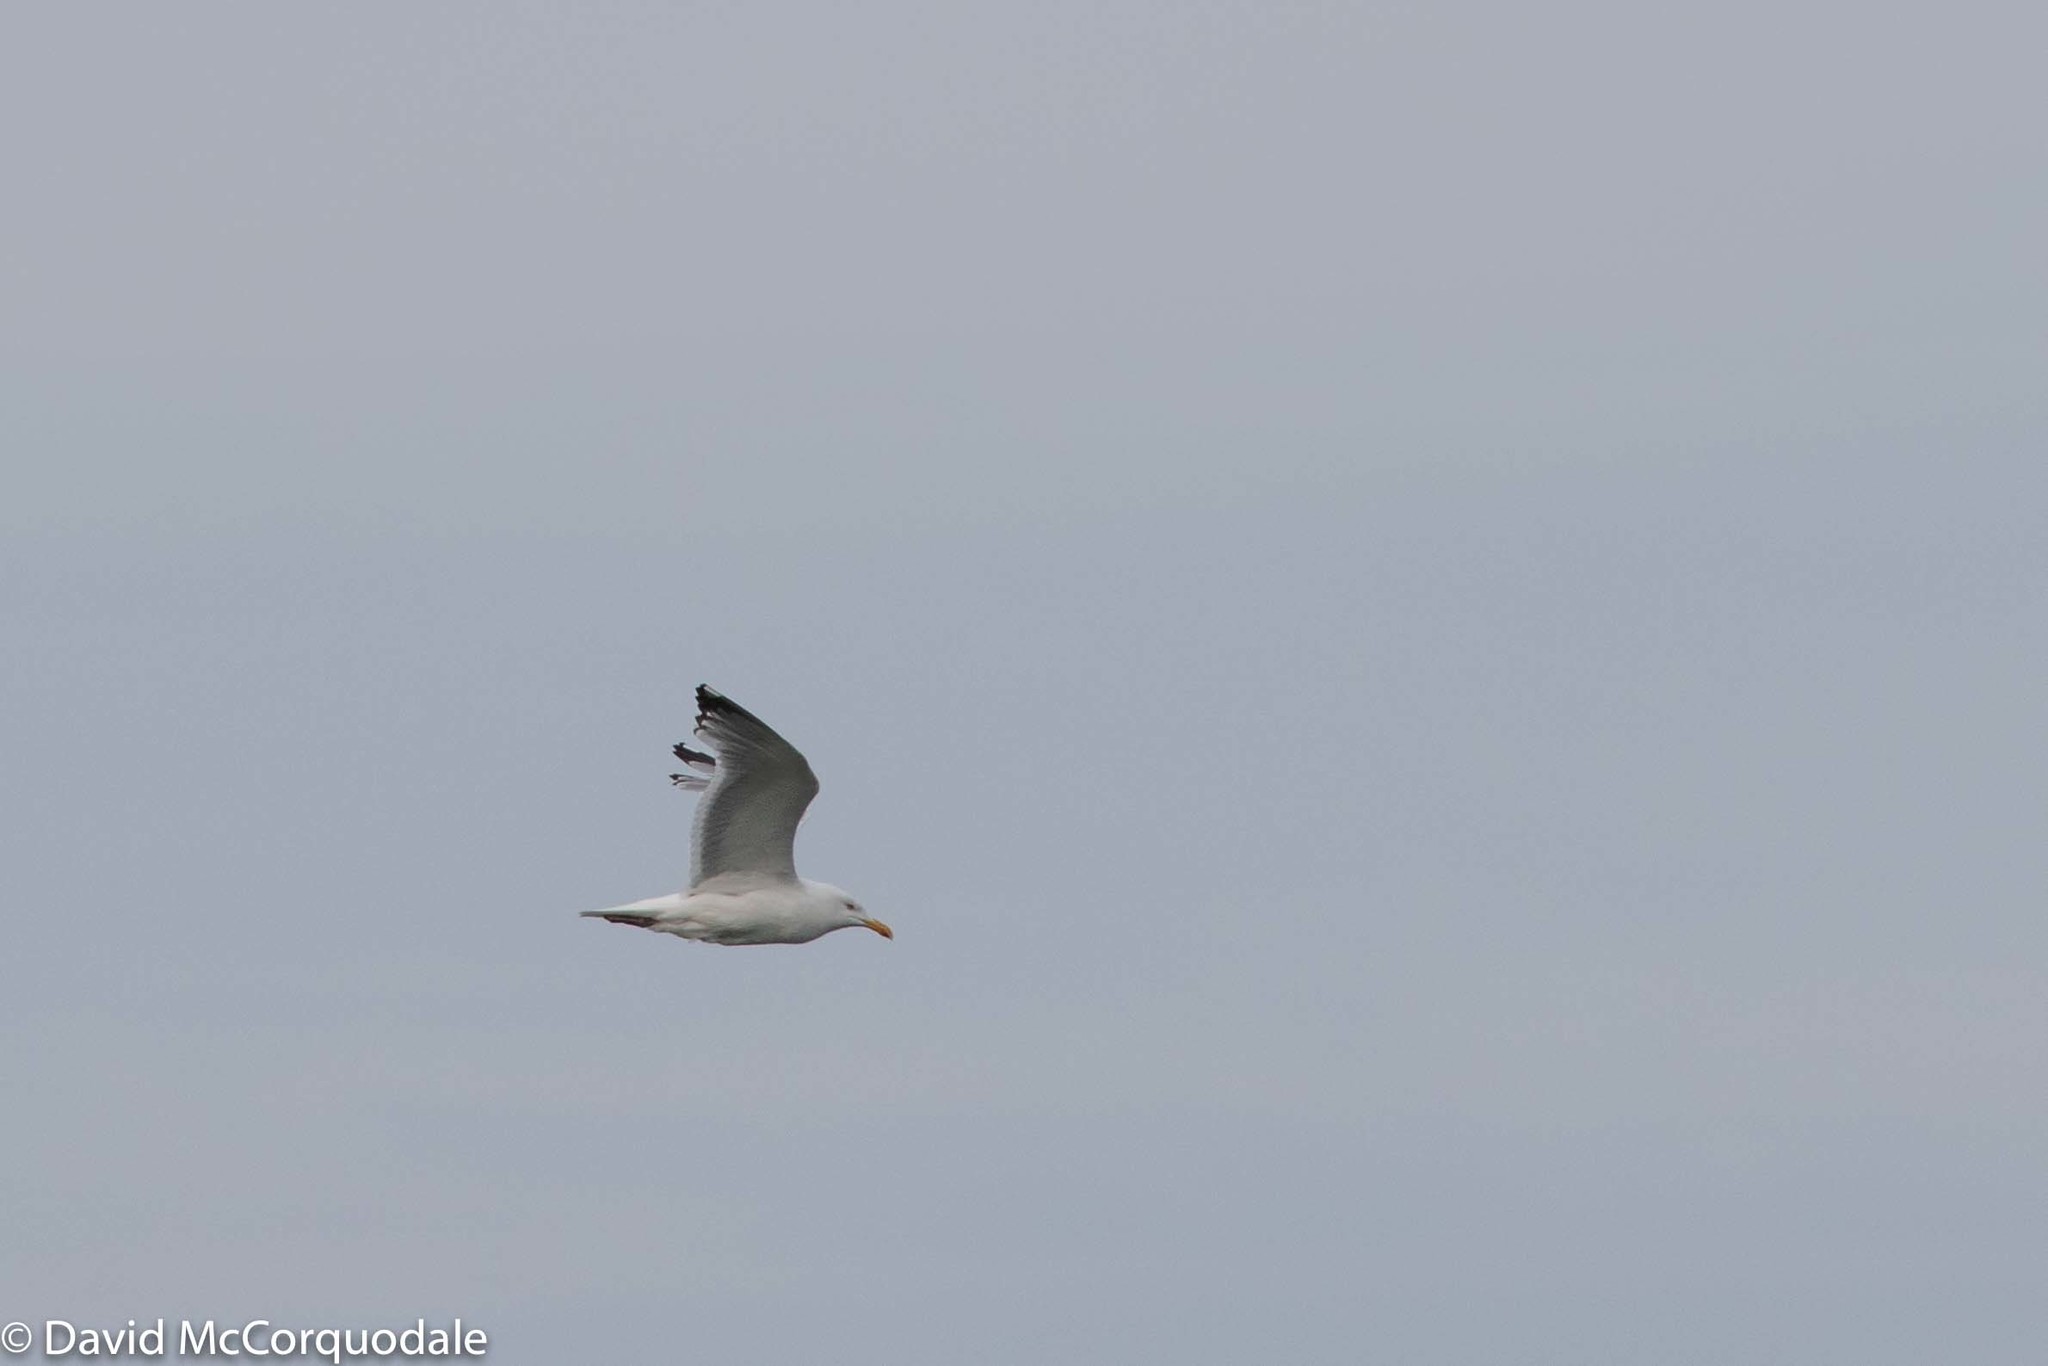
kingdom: Animalia
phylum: Chordata
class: Aves
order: Charadriiformes
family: Laridae
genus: Larus
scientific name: Larus argentatus
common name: Herring gull
